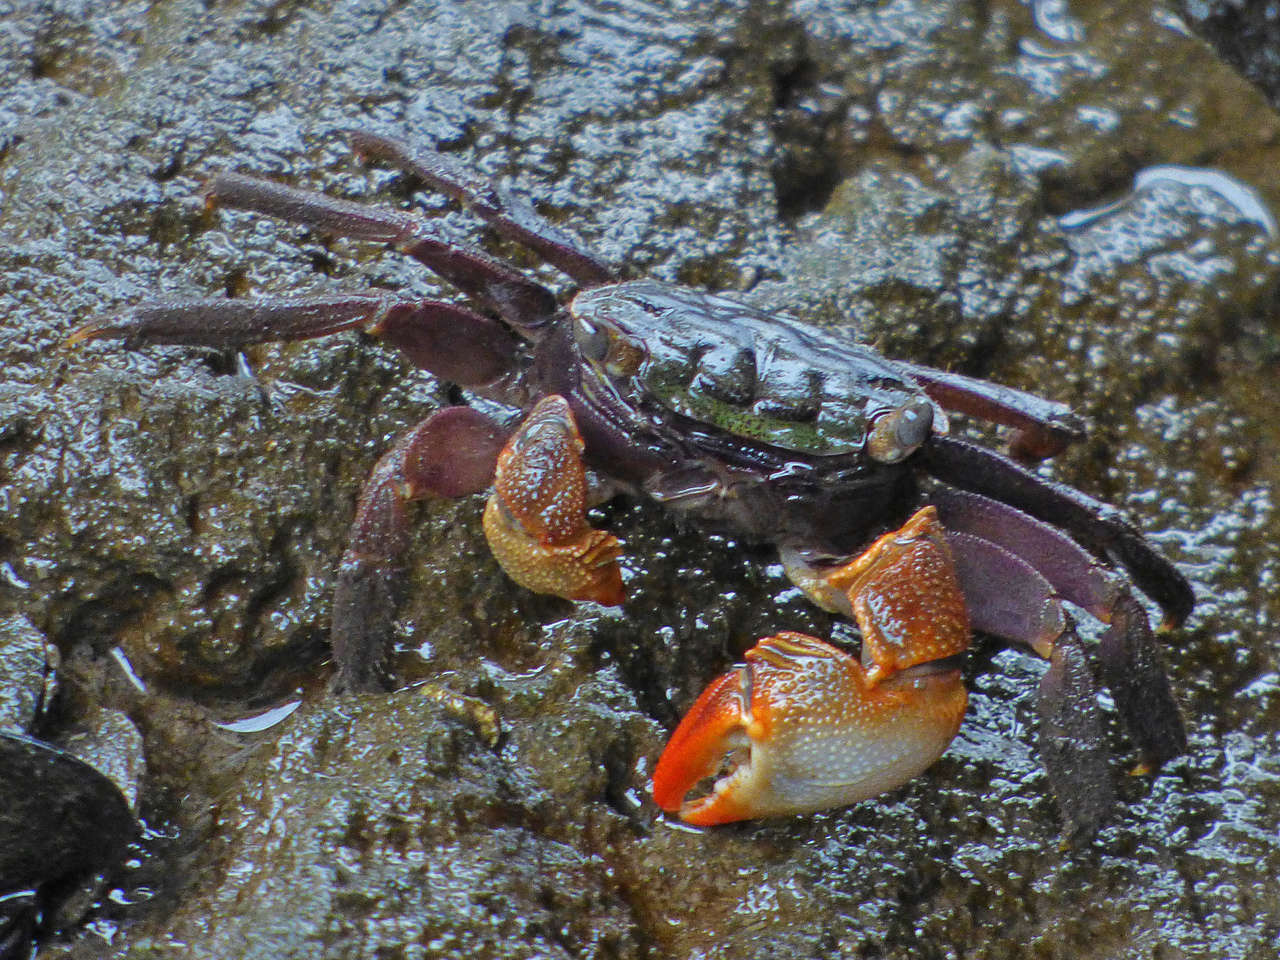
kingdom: Animalia
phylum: Arthropoda
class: Malacostraca
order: Decapoda
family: Sesarmidae
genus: Parasesarma
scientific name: Parasesarma erythodactylum
